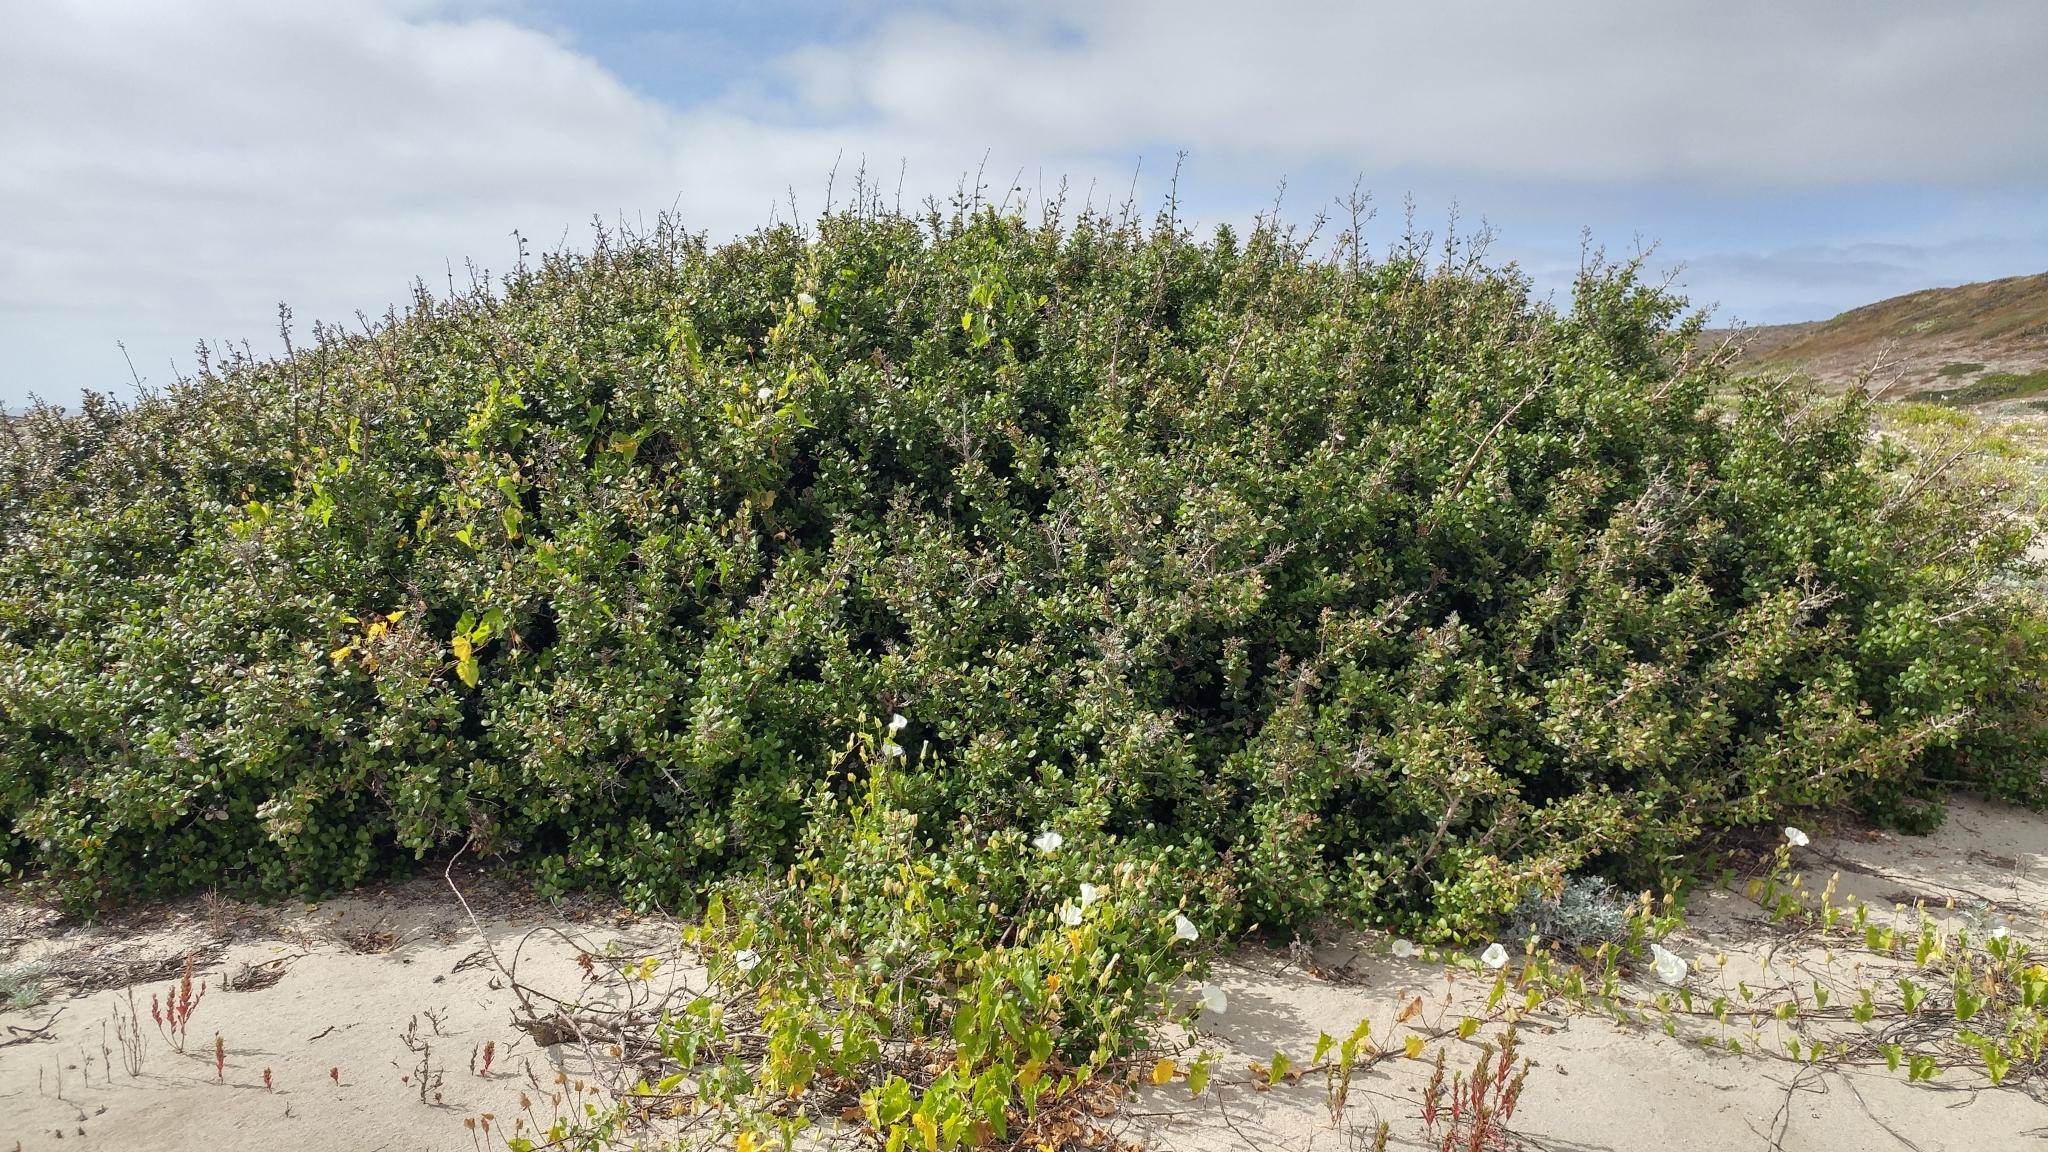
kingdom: Plantae
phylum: Tracheophyta
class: Magnoliopsida
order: Sapindales
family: Anacardiaceae
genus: Rhus
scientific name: Rhus integrifolia
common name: Lemonade sumac
